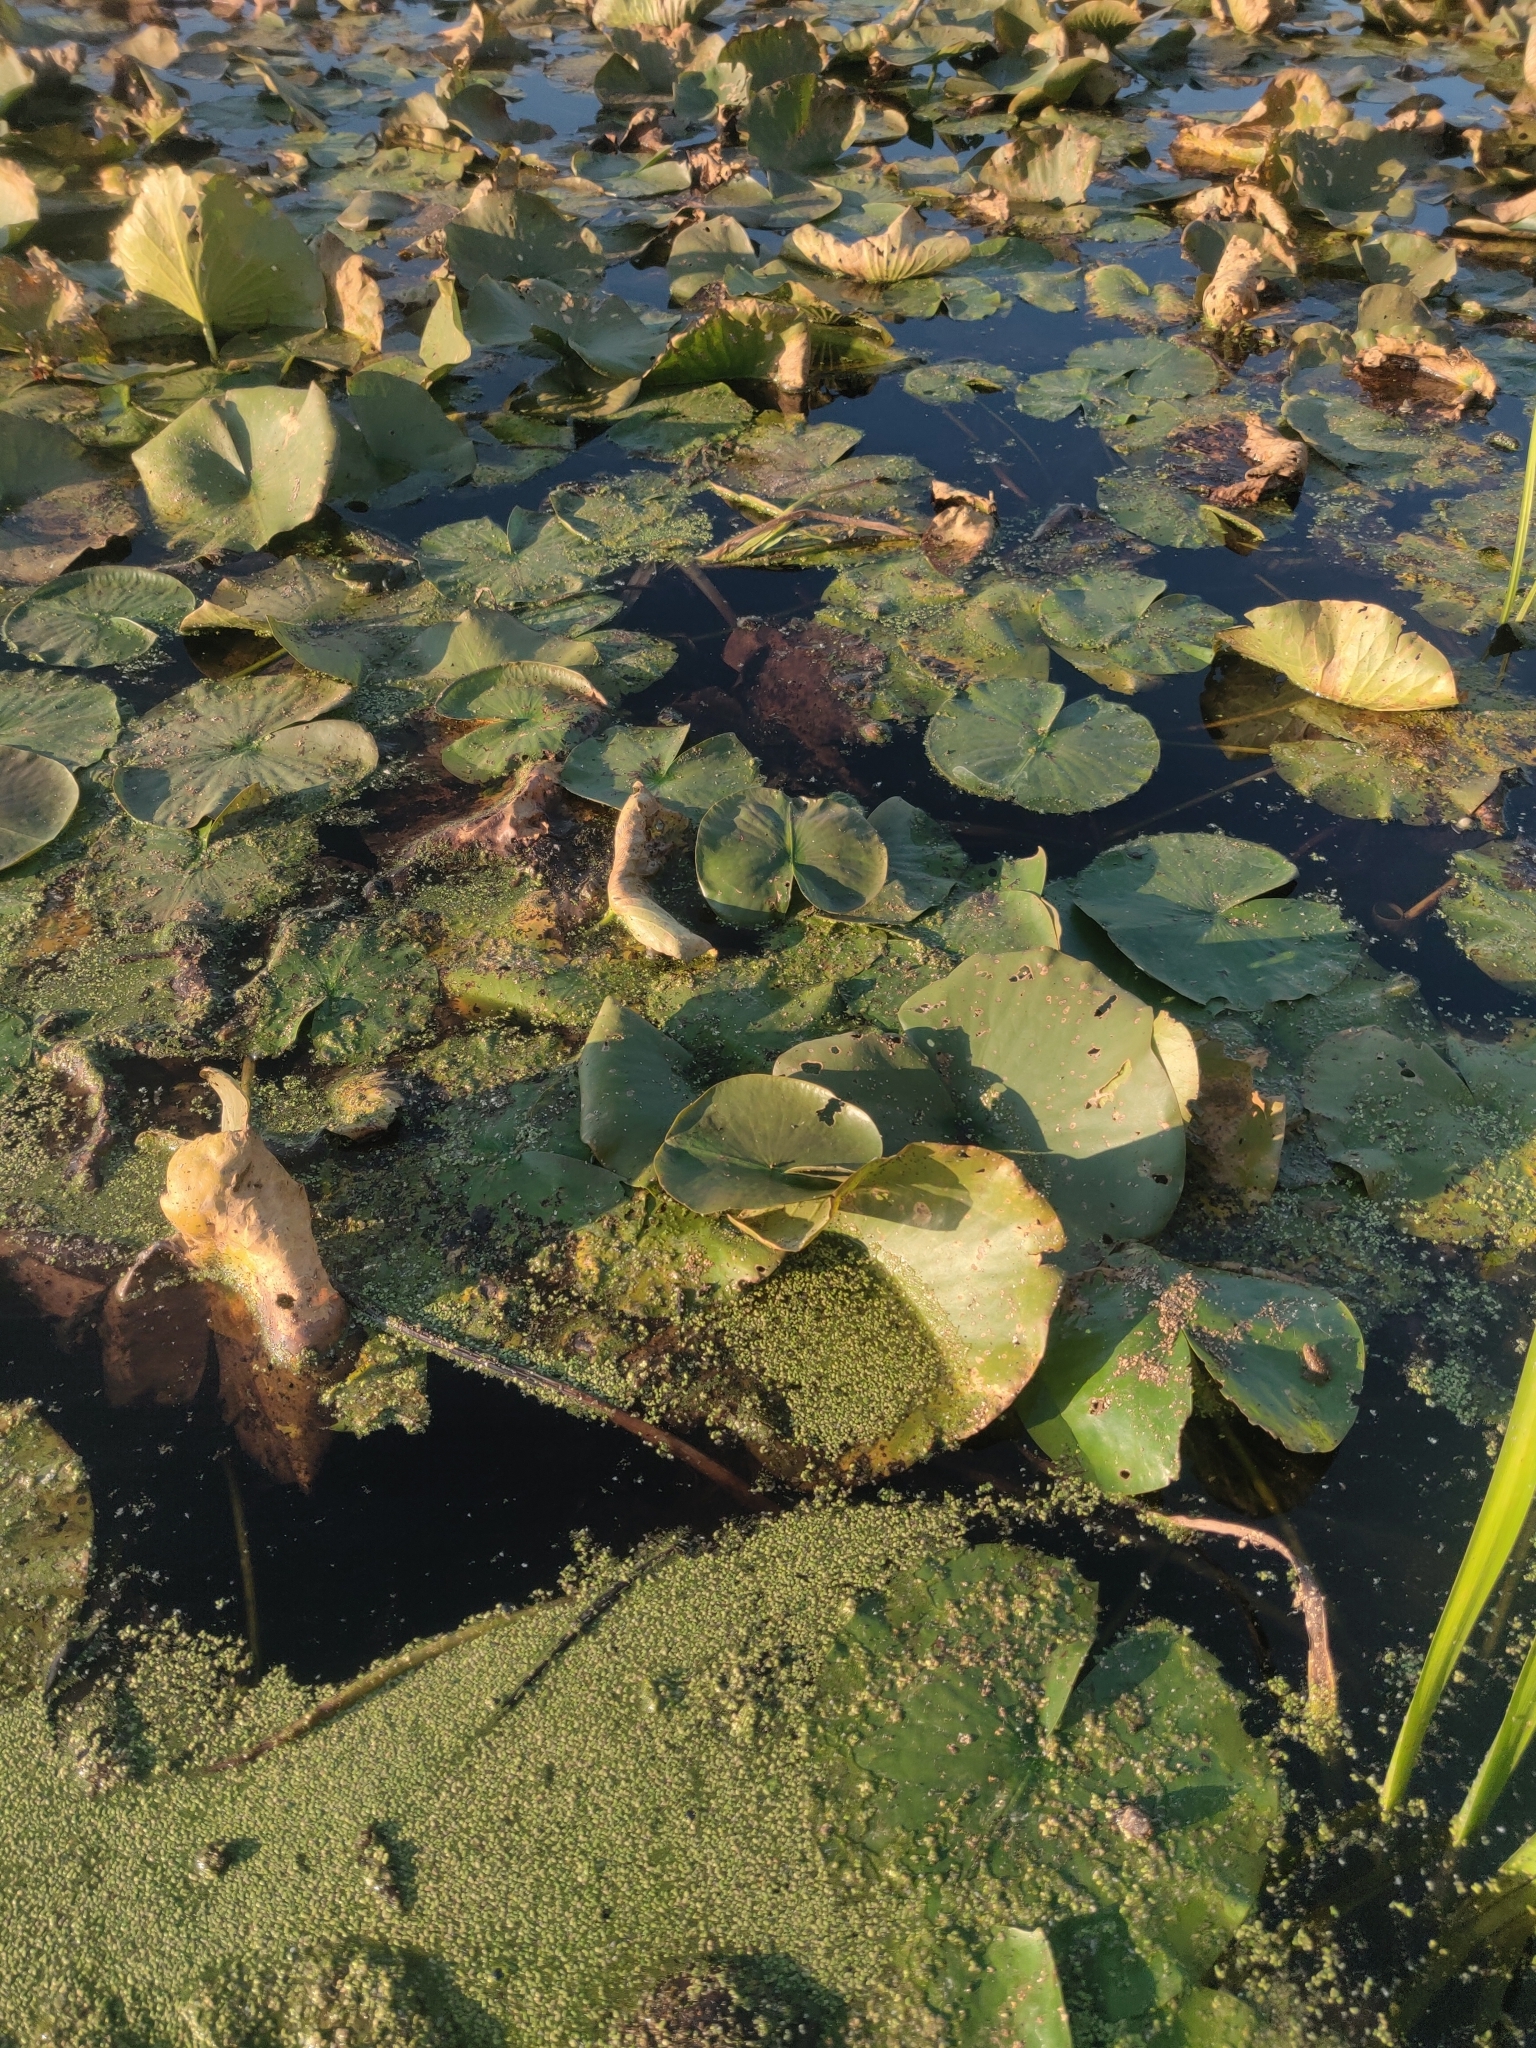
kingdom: Plantae
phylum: Tracheophyta
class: Magnoliopsida
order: Nymphaeales
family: Nymphaeaceae
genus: Nymphaea
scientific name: Nymphaea odorata
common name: Fragrant water-lily
